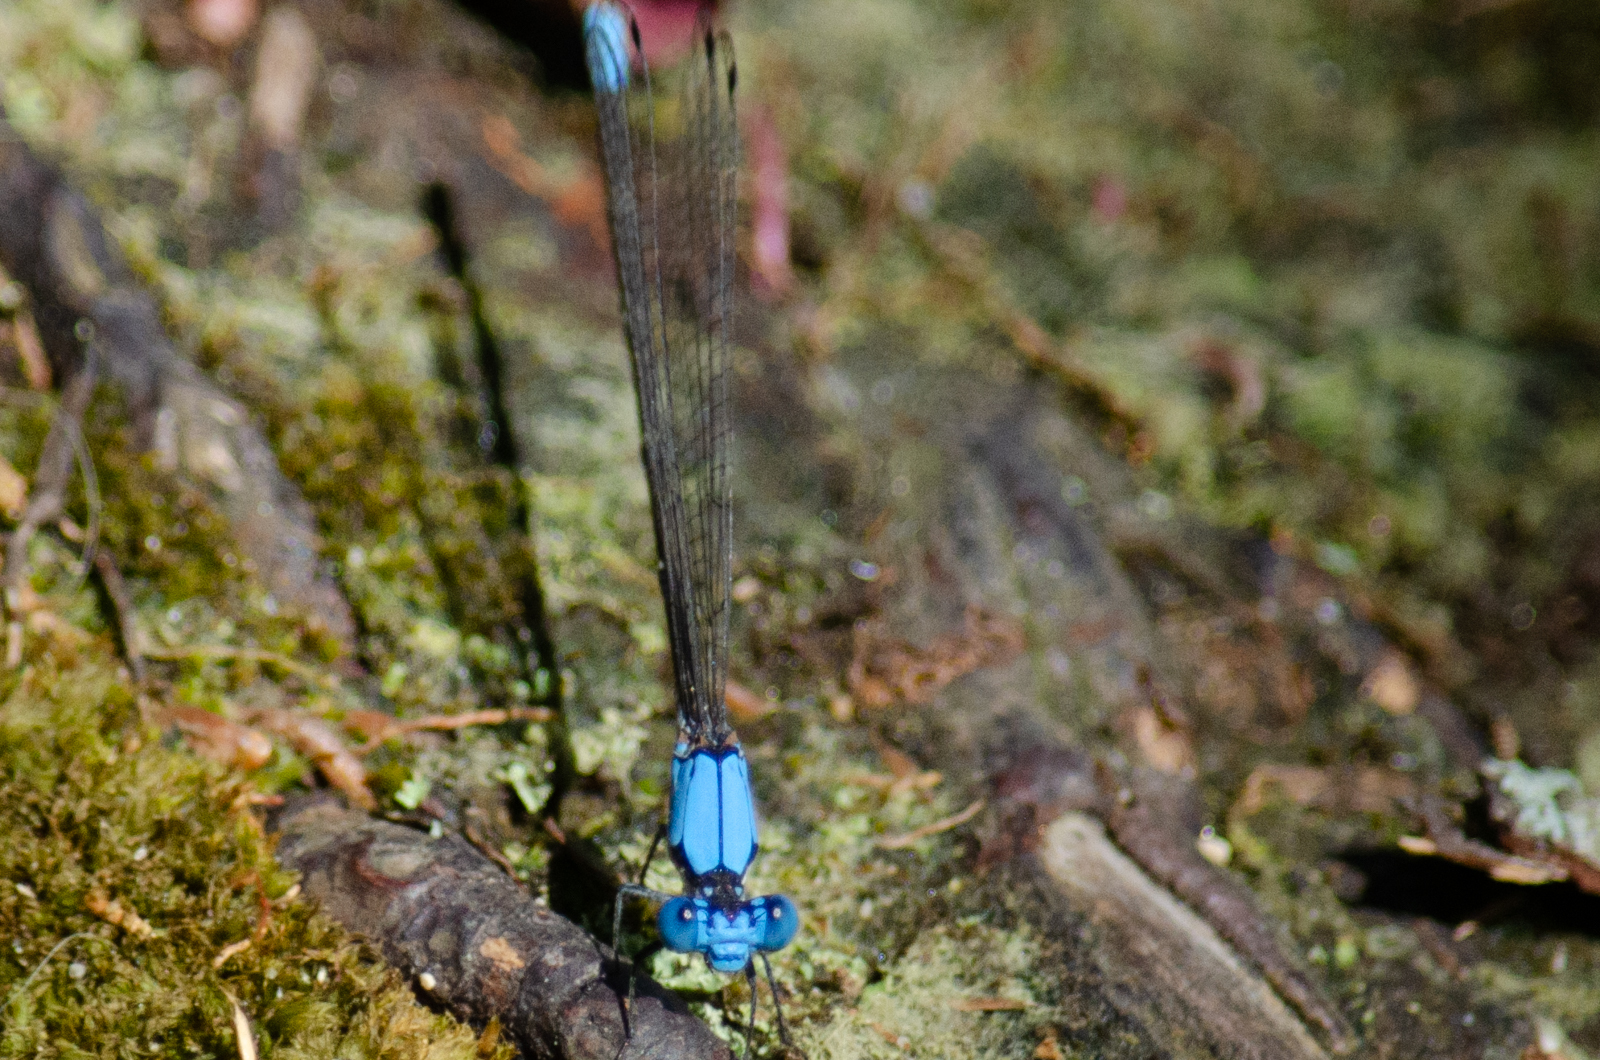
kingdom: Animalia
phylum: Arthropoda
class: Insecta
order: Odonata
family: Coenagrionidae
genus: Argia
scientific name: Argia apicalis
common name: Blue-fronted dancer
